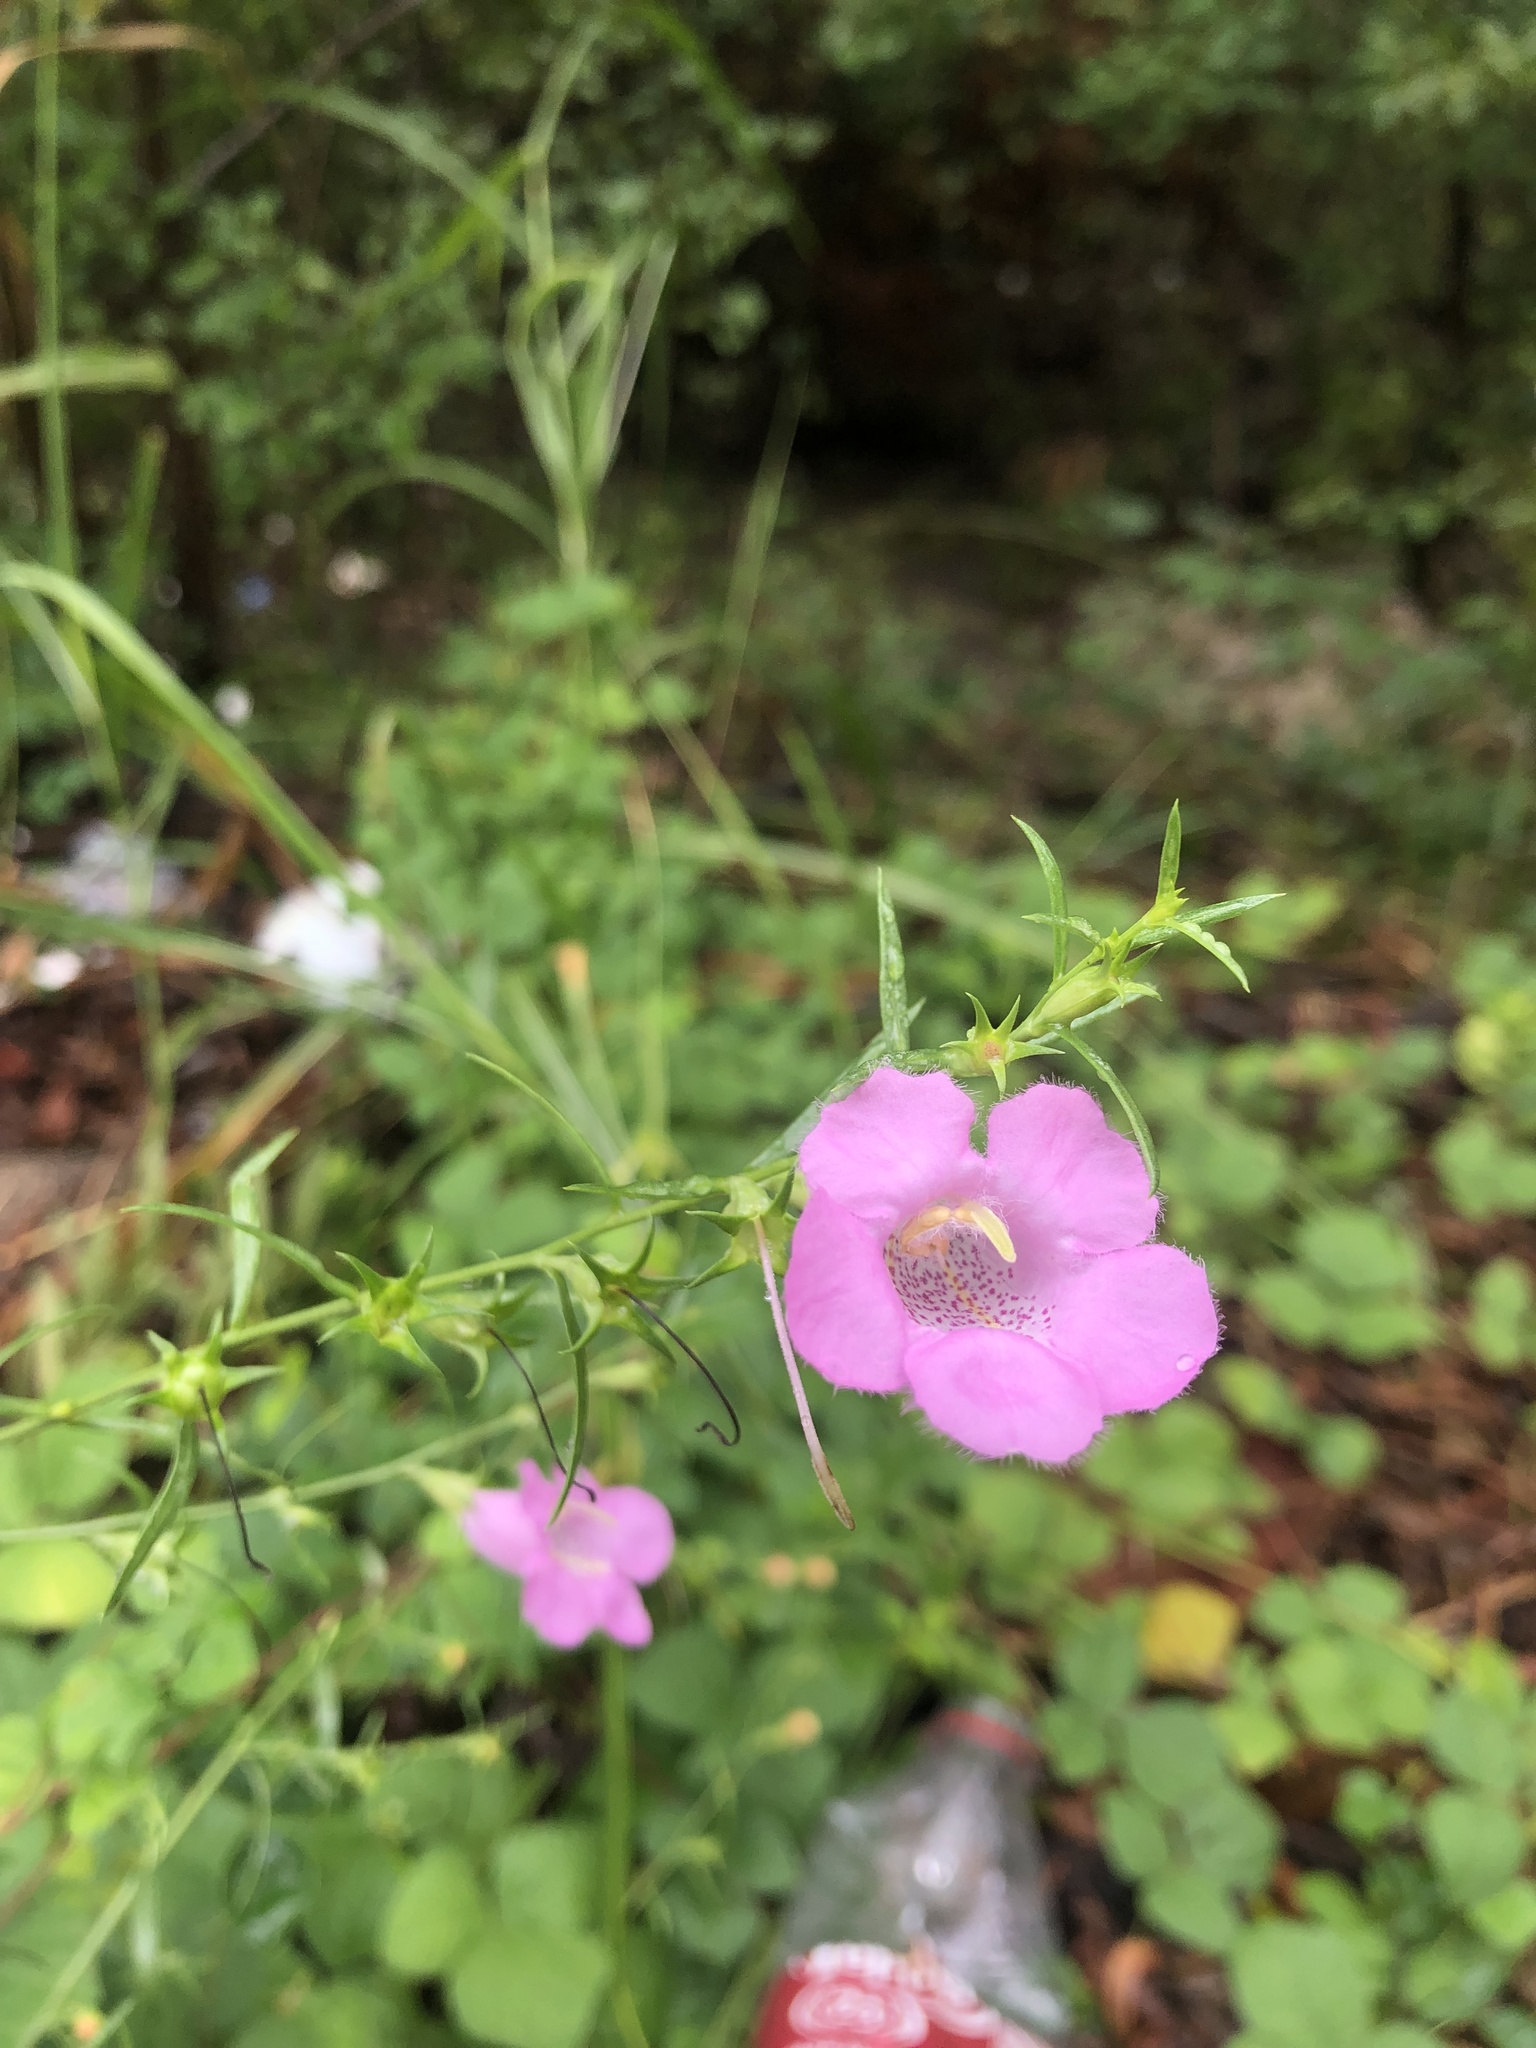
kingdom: Plantae
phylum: Tracheophyta
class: Magnoliopsida
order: Lamiales
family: Orobanchaceae
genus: Agalinis
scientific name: Agalinis heterophylla
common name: Prairie agalinis
